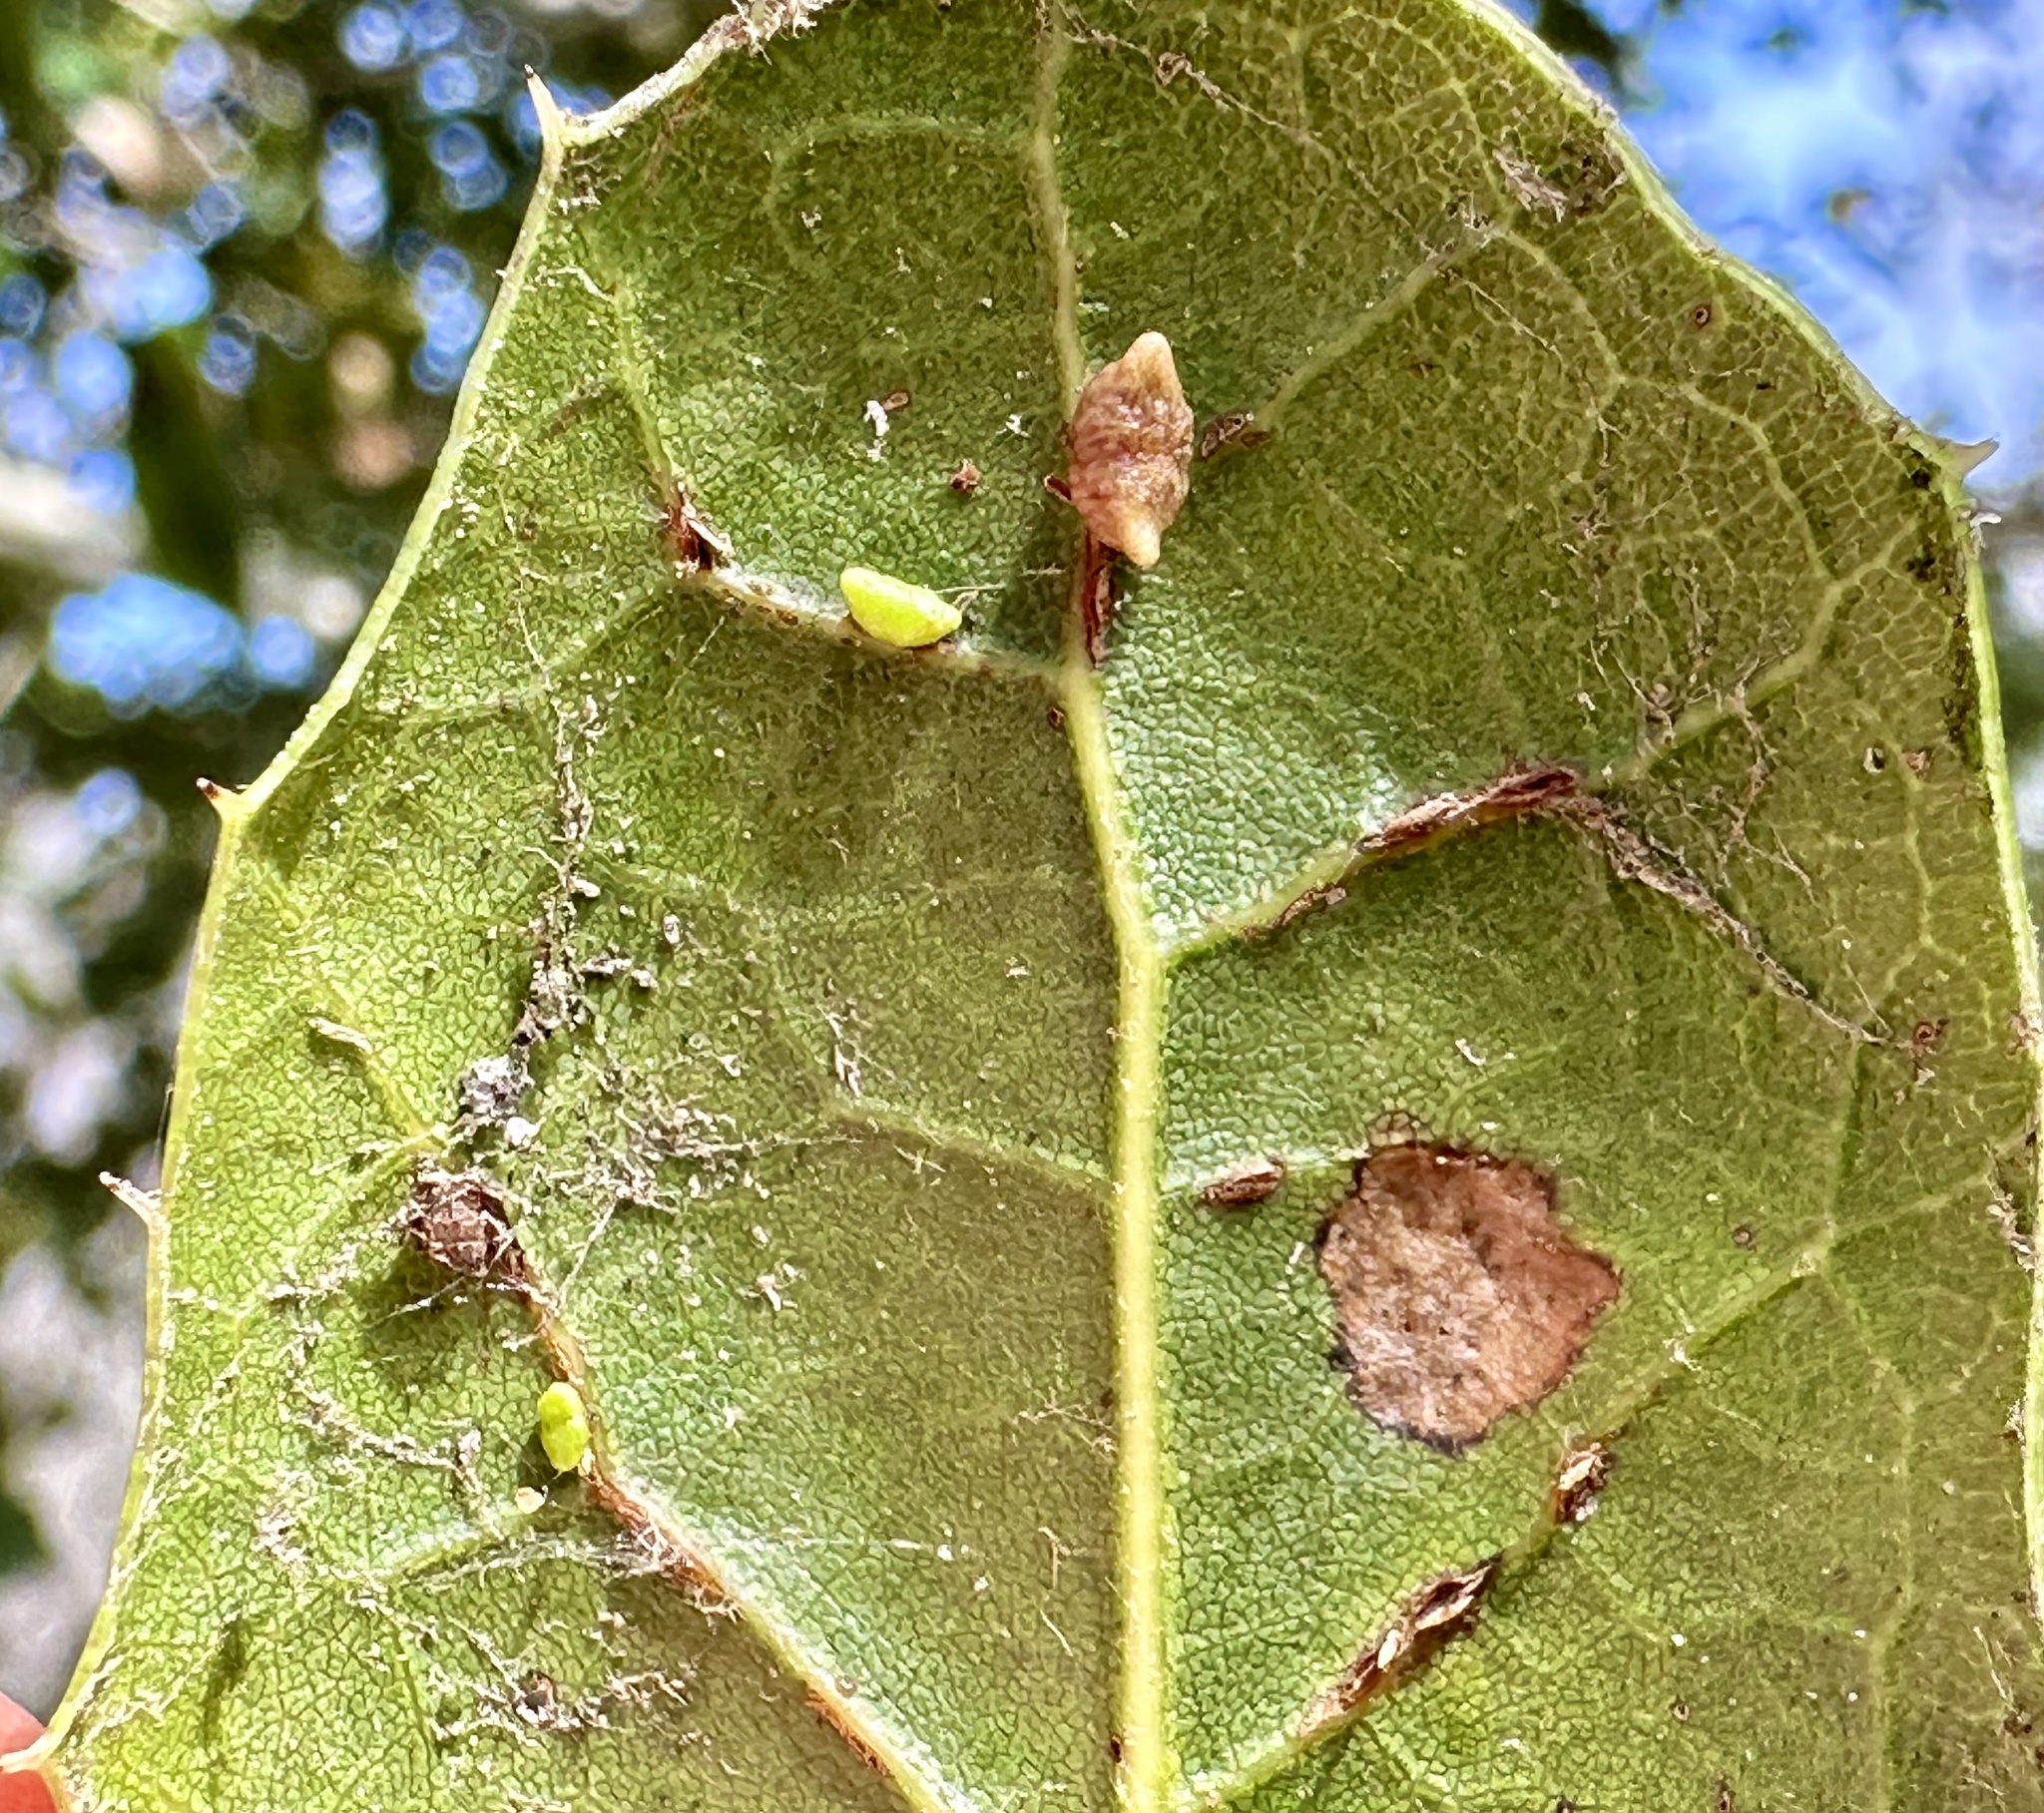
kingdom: Animalia
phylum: Arthropoda
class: Insecta
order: Hymenoptera
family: Cynipidae
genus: Dryocosmus
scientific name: Dryocosmus
